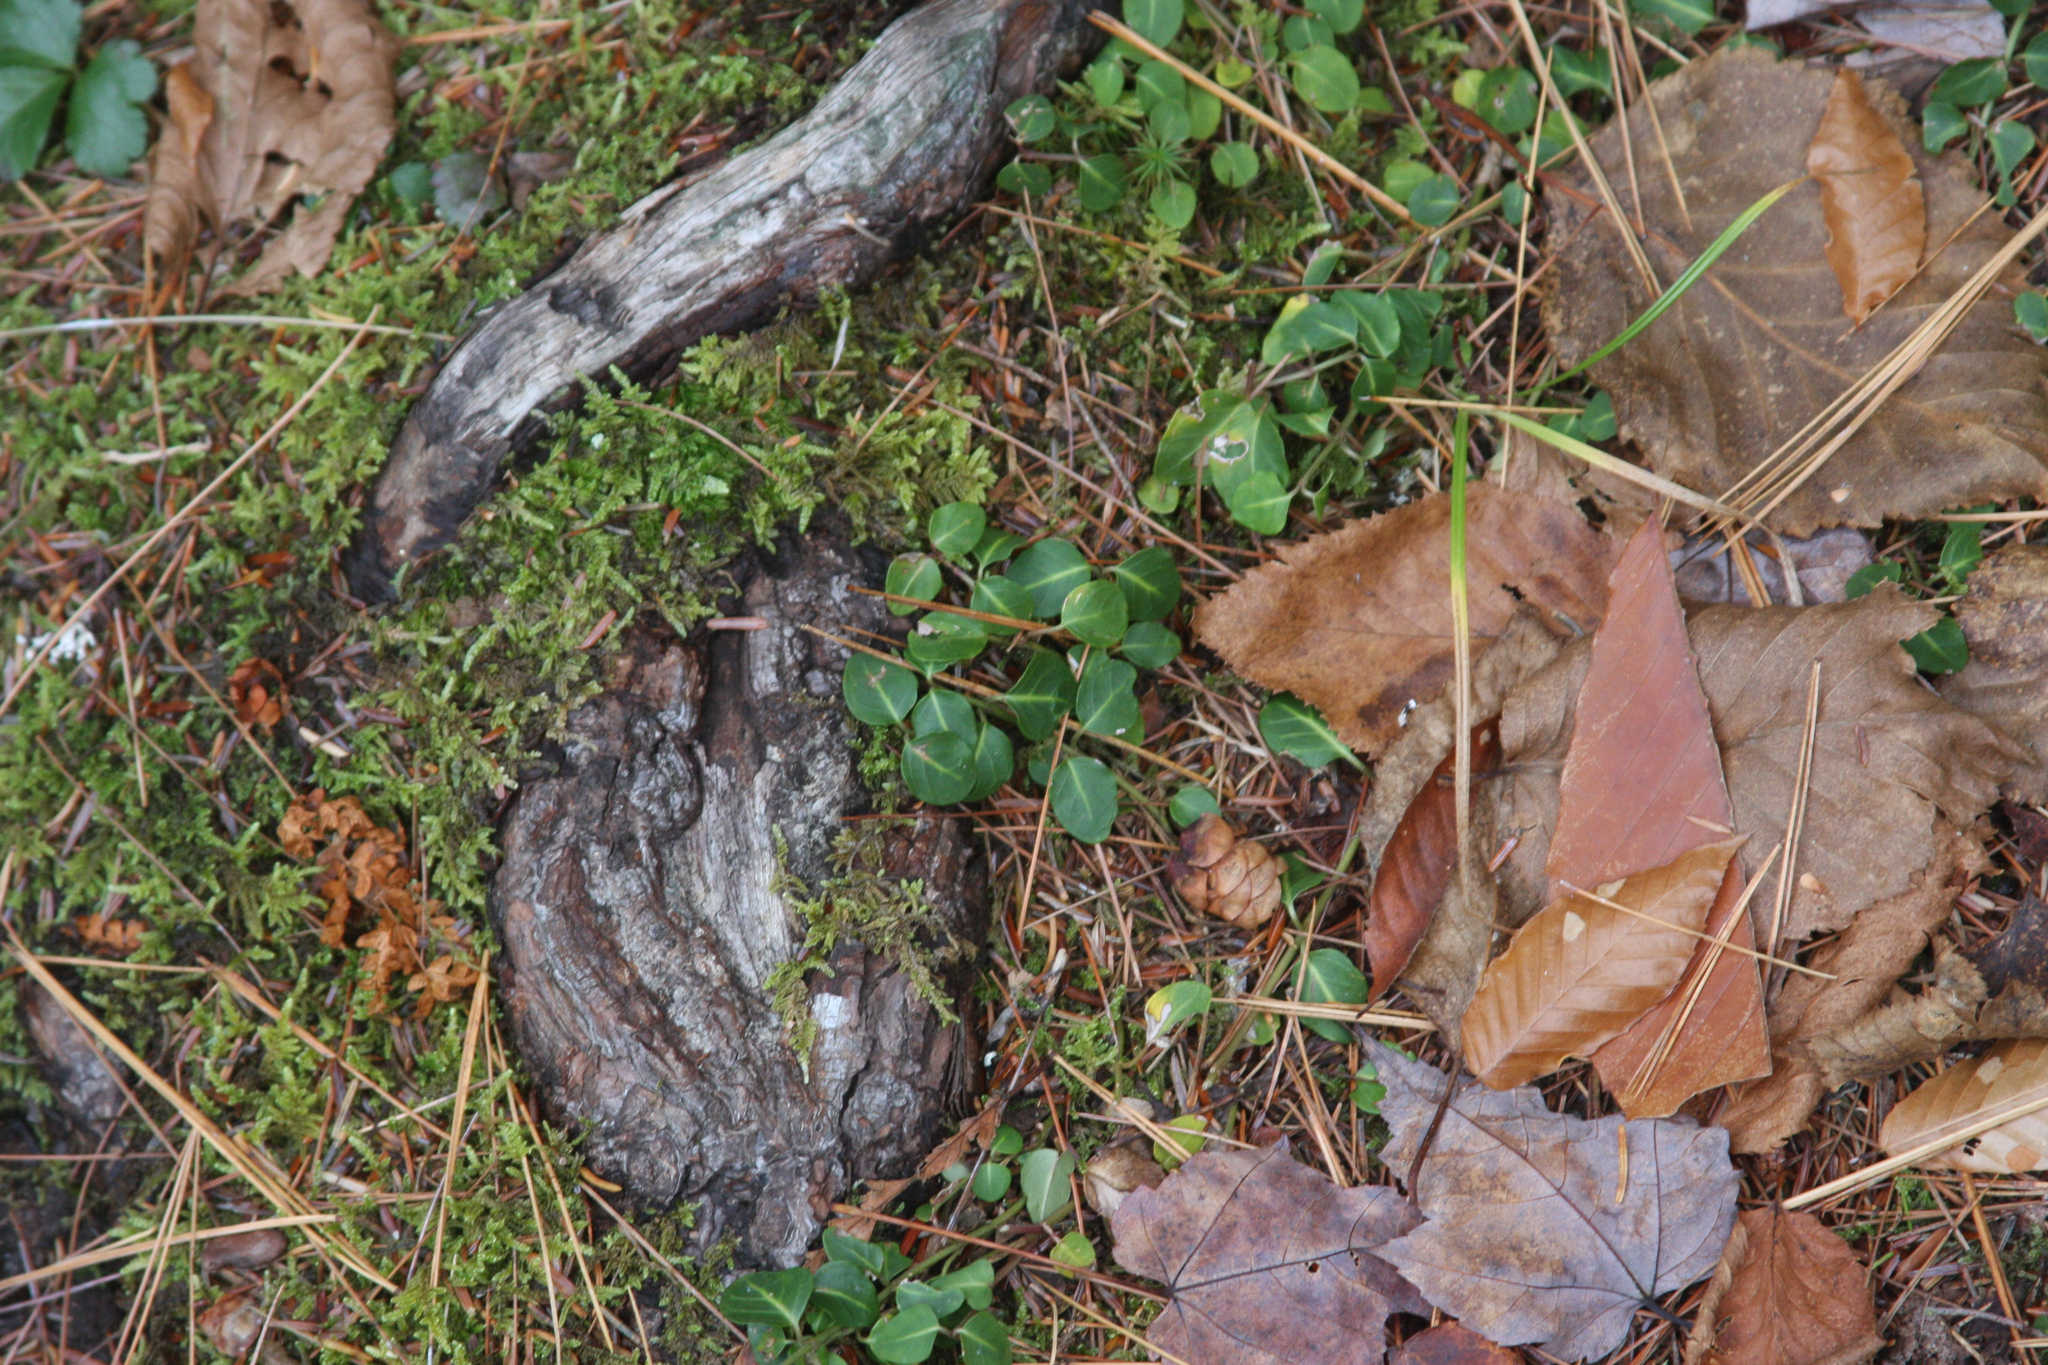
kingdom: Plantae
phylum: Tracheophyta
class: Magnoliopsida
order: Gentianales
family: Rubiaceae
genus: Mitchella
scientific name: Mitchella repens
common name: Partridge-berry
